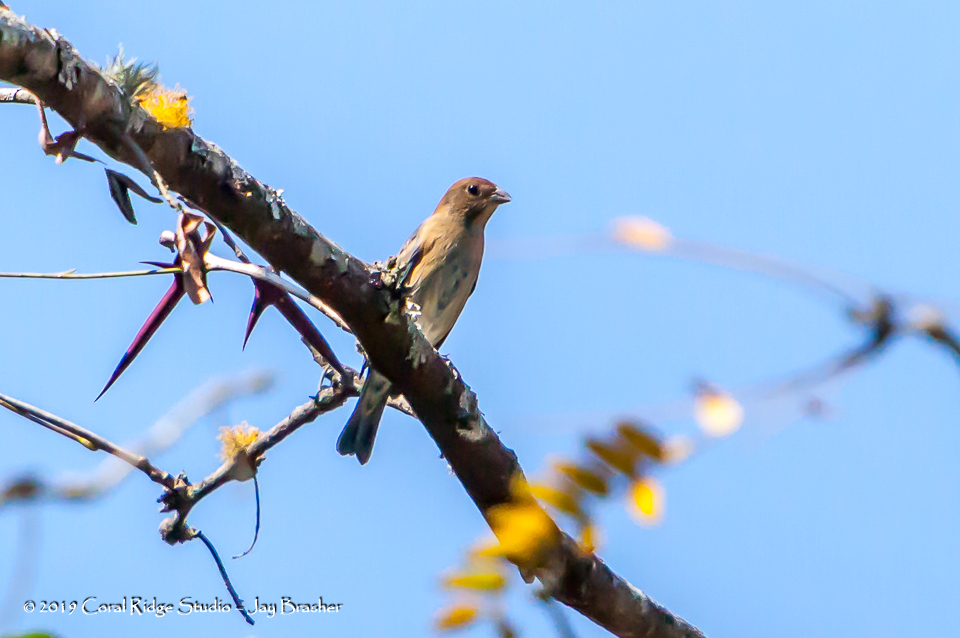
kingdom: Animalia
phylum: Chordata
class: Aves
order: Passeriformes
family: Cardinalidae
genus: Passerina
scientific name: Passerina cyanea
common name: Indigo bunting
